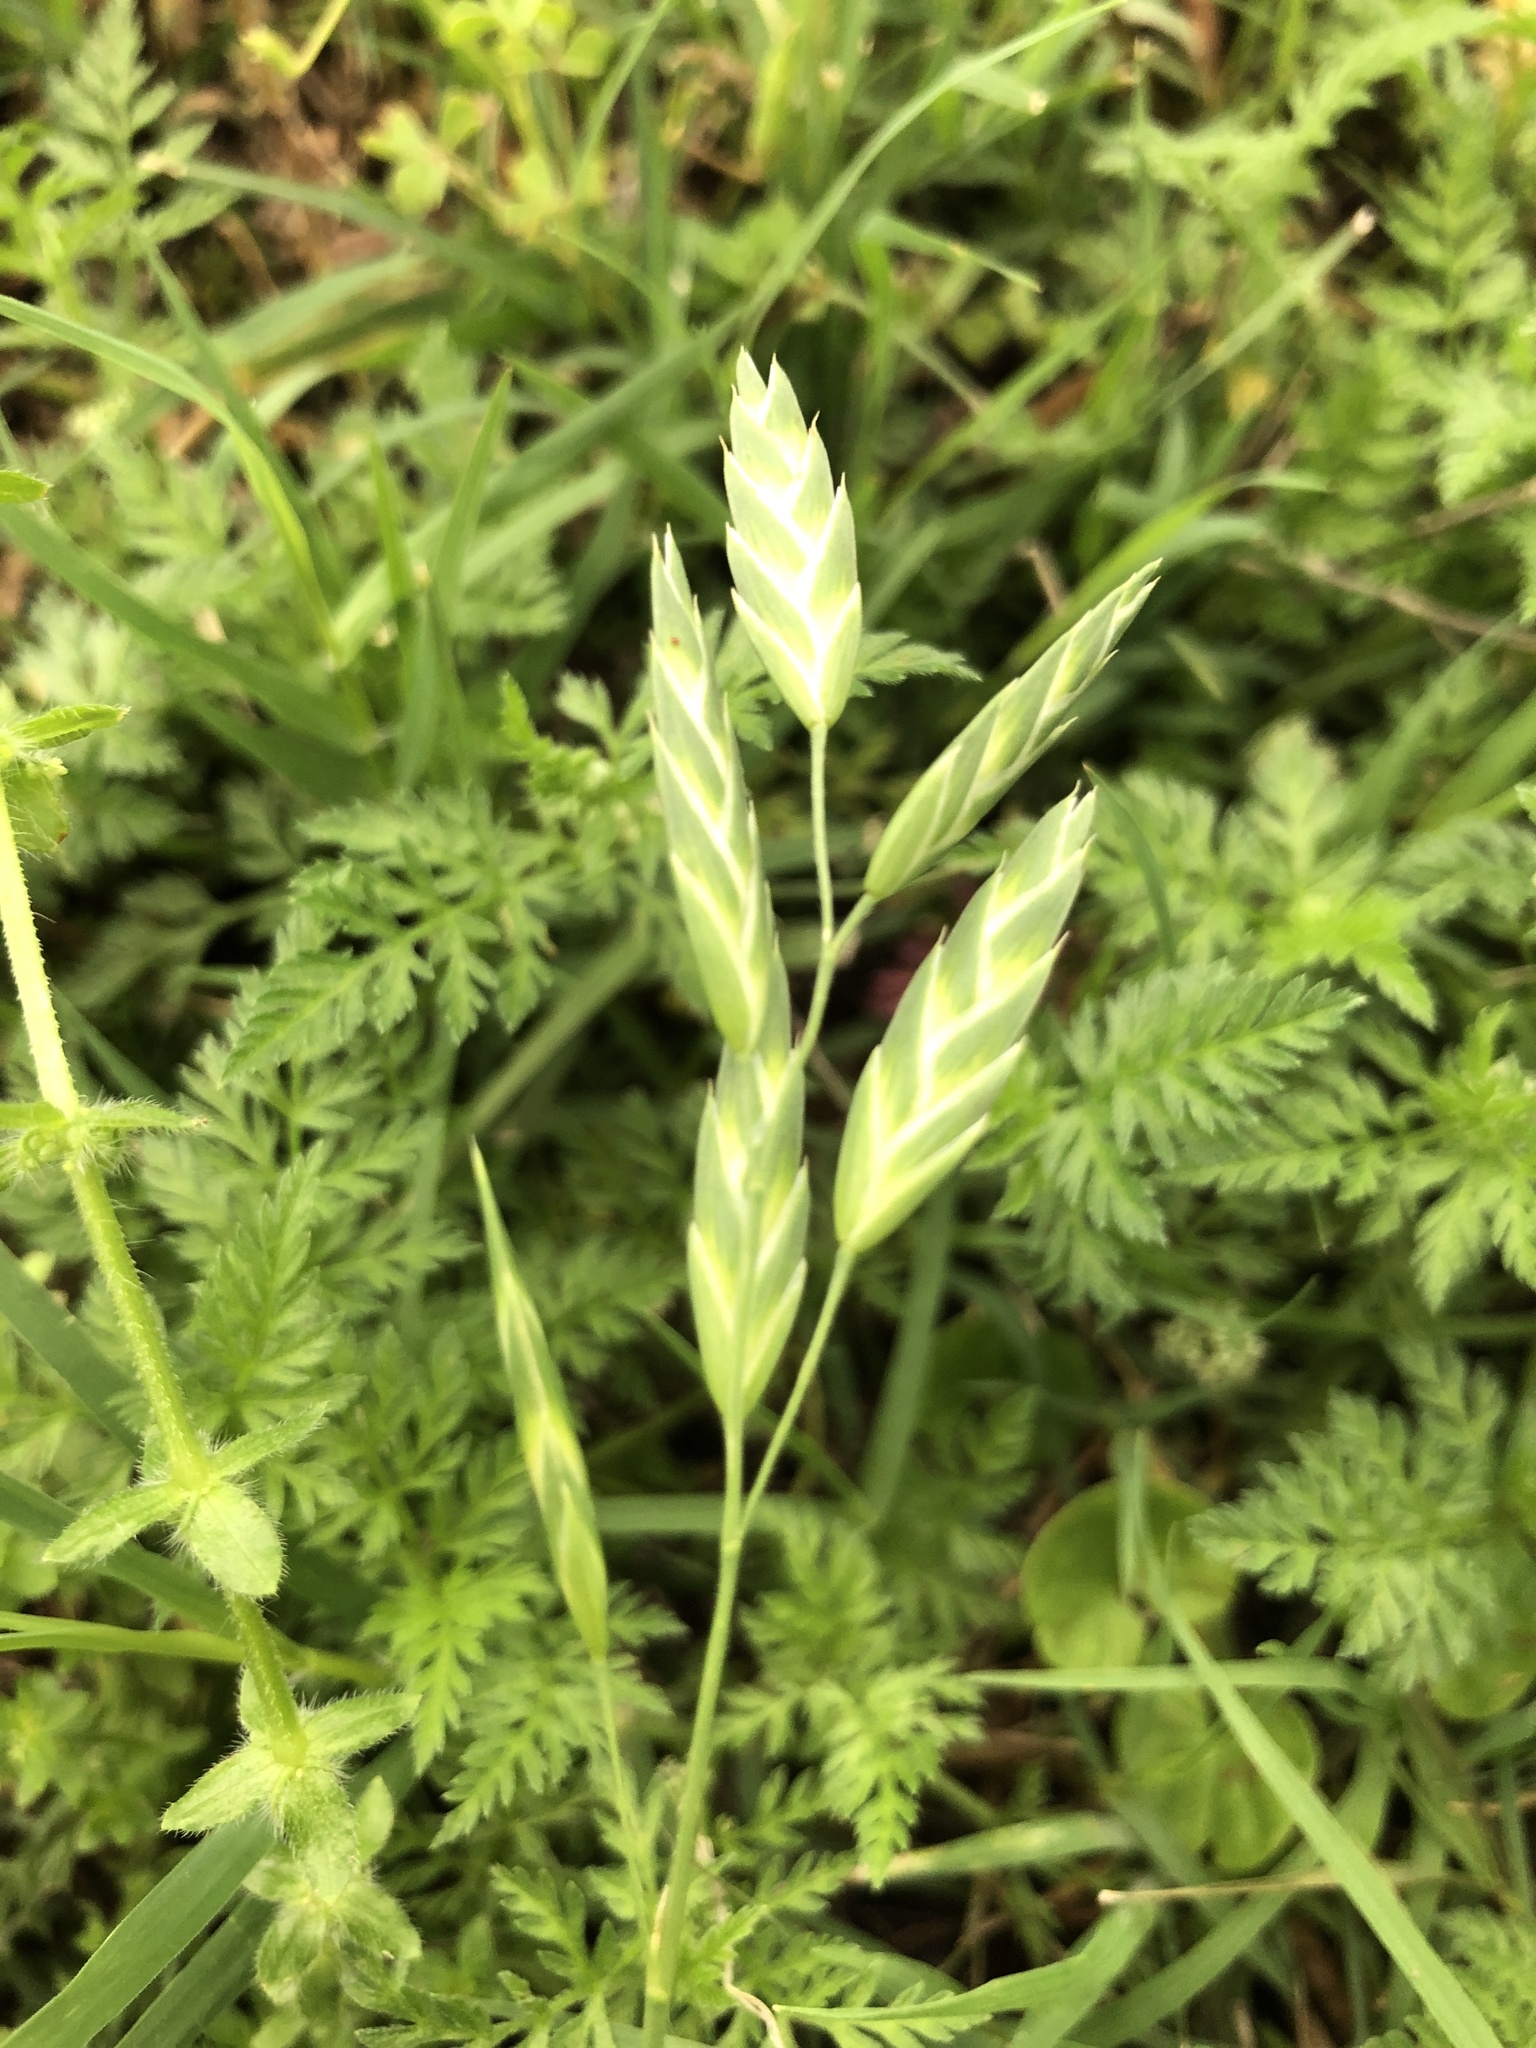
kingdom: Plantae
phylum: Tracheophyta
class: Liliopsida
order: Poales
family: Poaceae
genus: Bromus
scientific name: Bromus catharticus
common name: Rescuegrass
